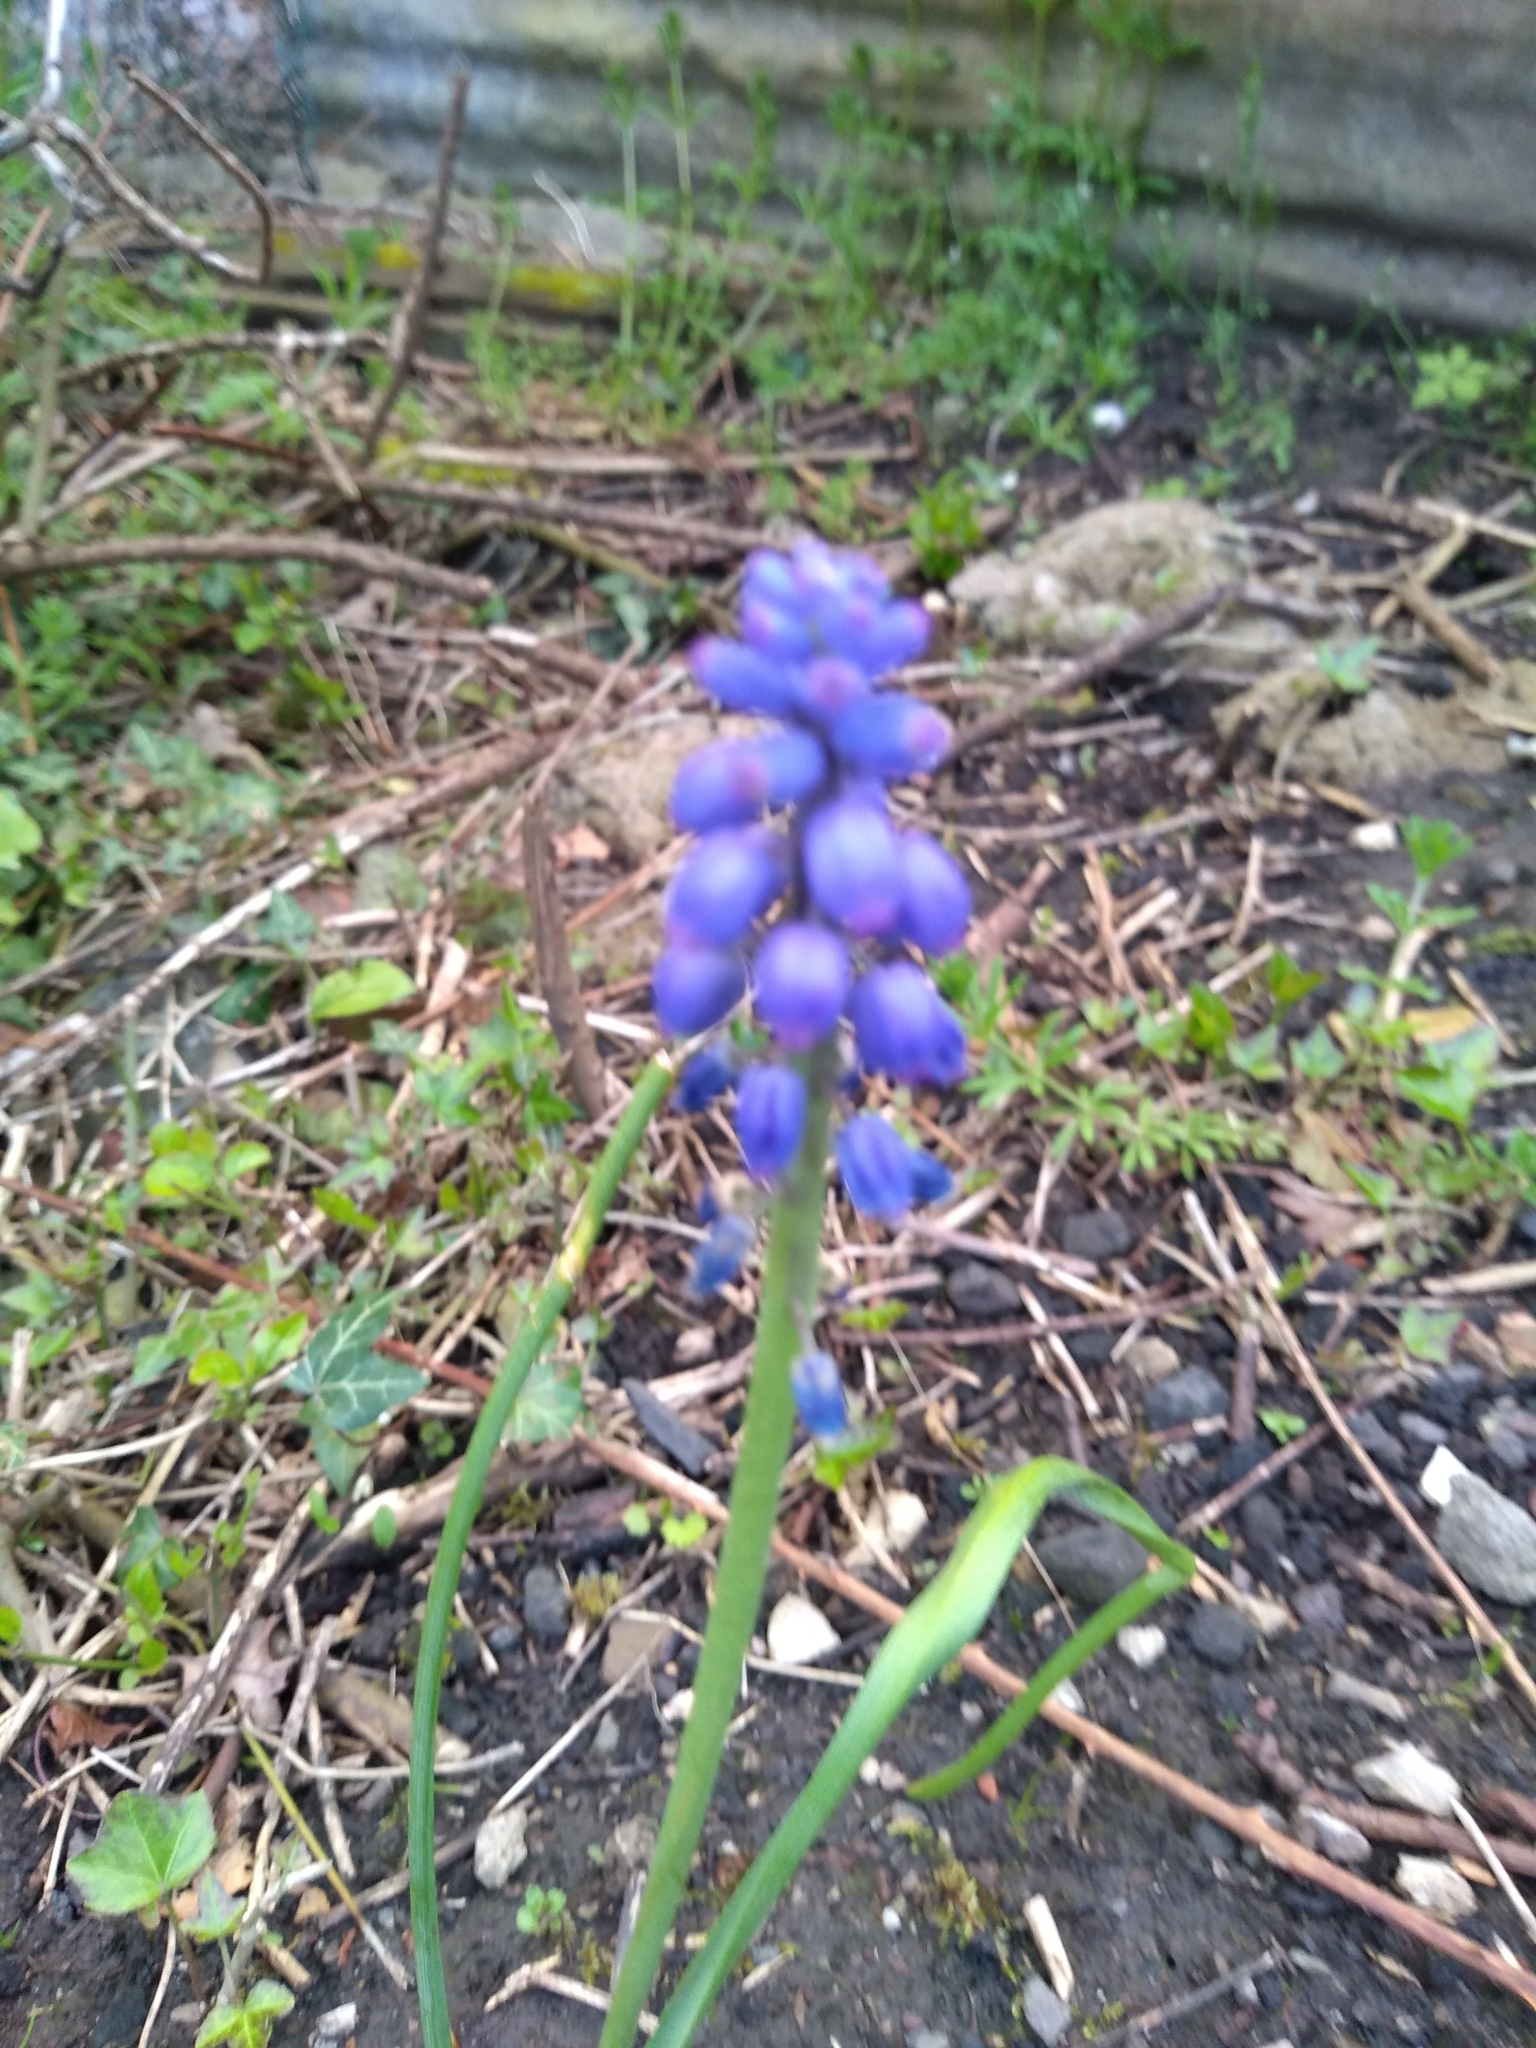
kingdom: Plantae
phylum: Tracheophyta
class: Liliopsida
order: Asparagales
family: Asparagaceae
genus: Muscari
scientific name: Muscari armeniacum
